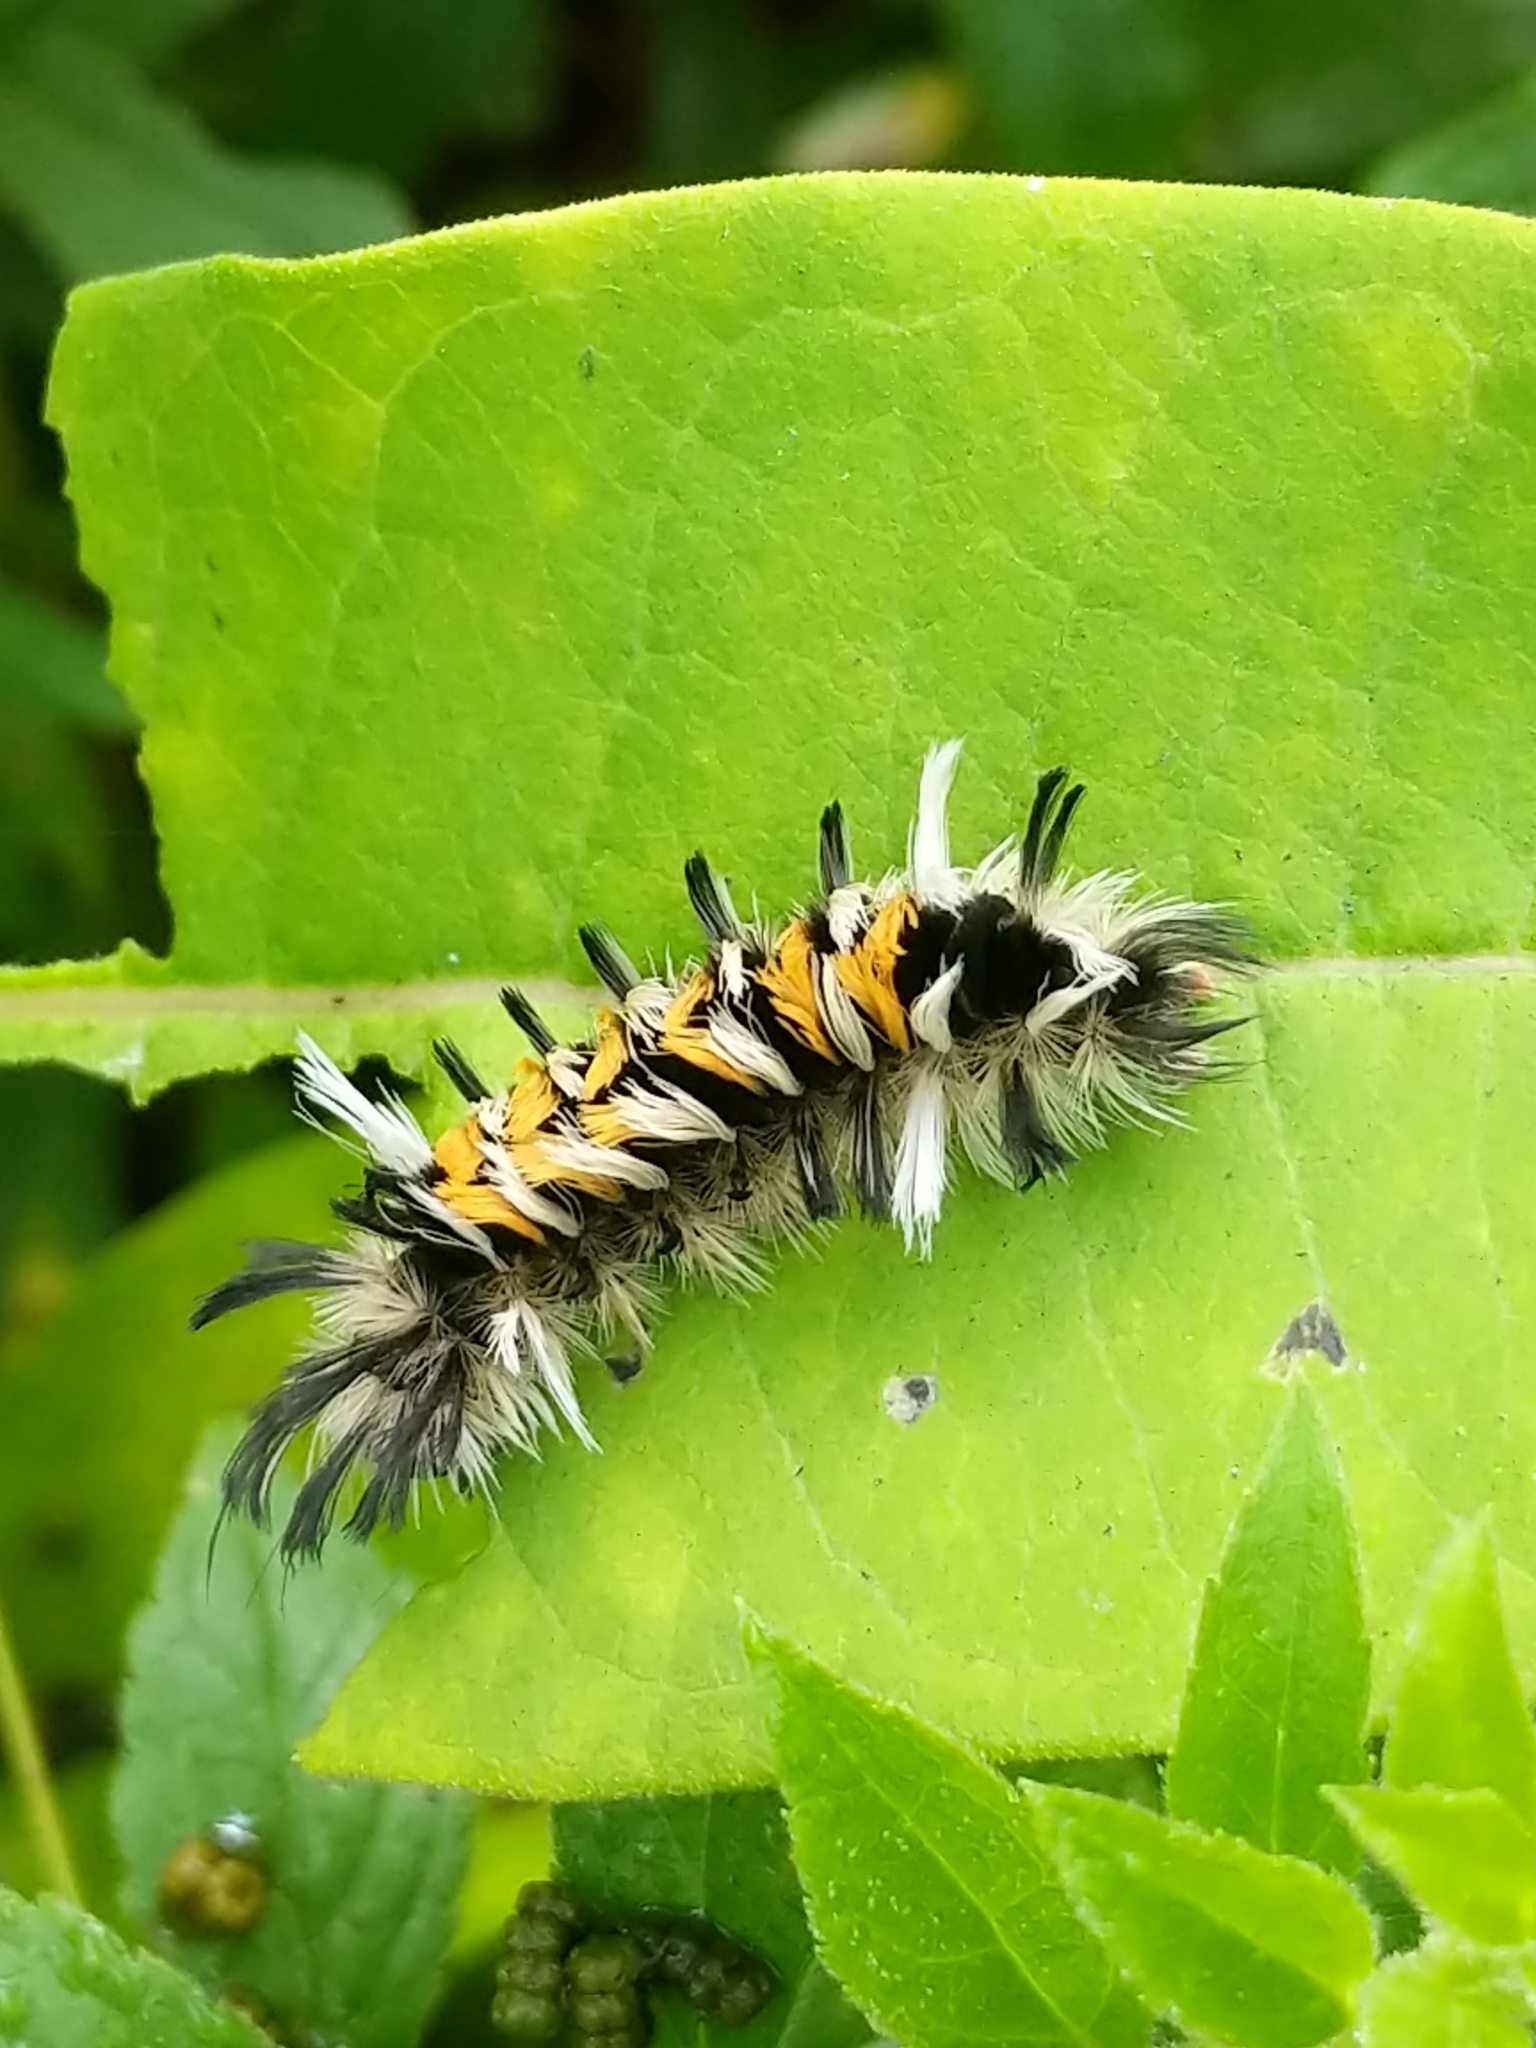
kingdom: Animalia
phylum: Arthropoda
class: Insecta
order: Lepidoptera
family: Erebidae
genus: Euchaetes
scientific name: Euchaetes egle
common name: Milkweed tussock moth
